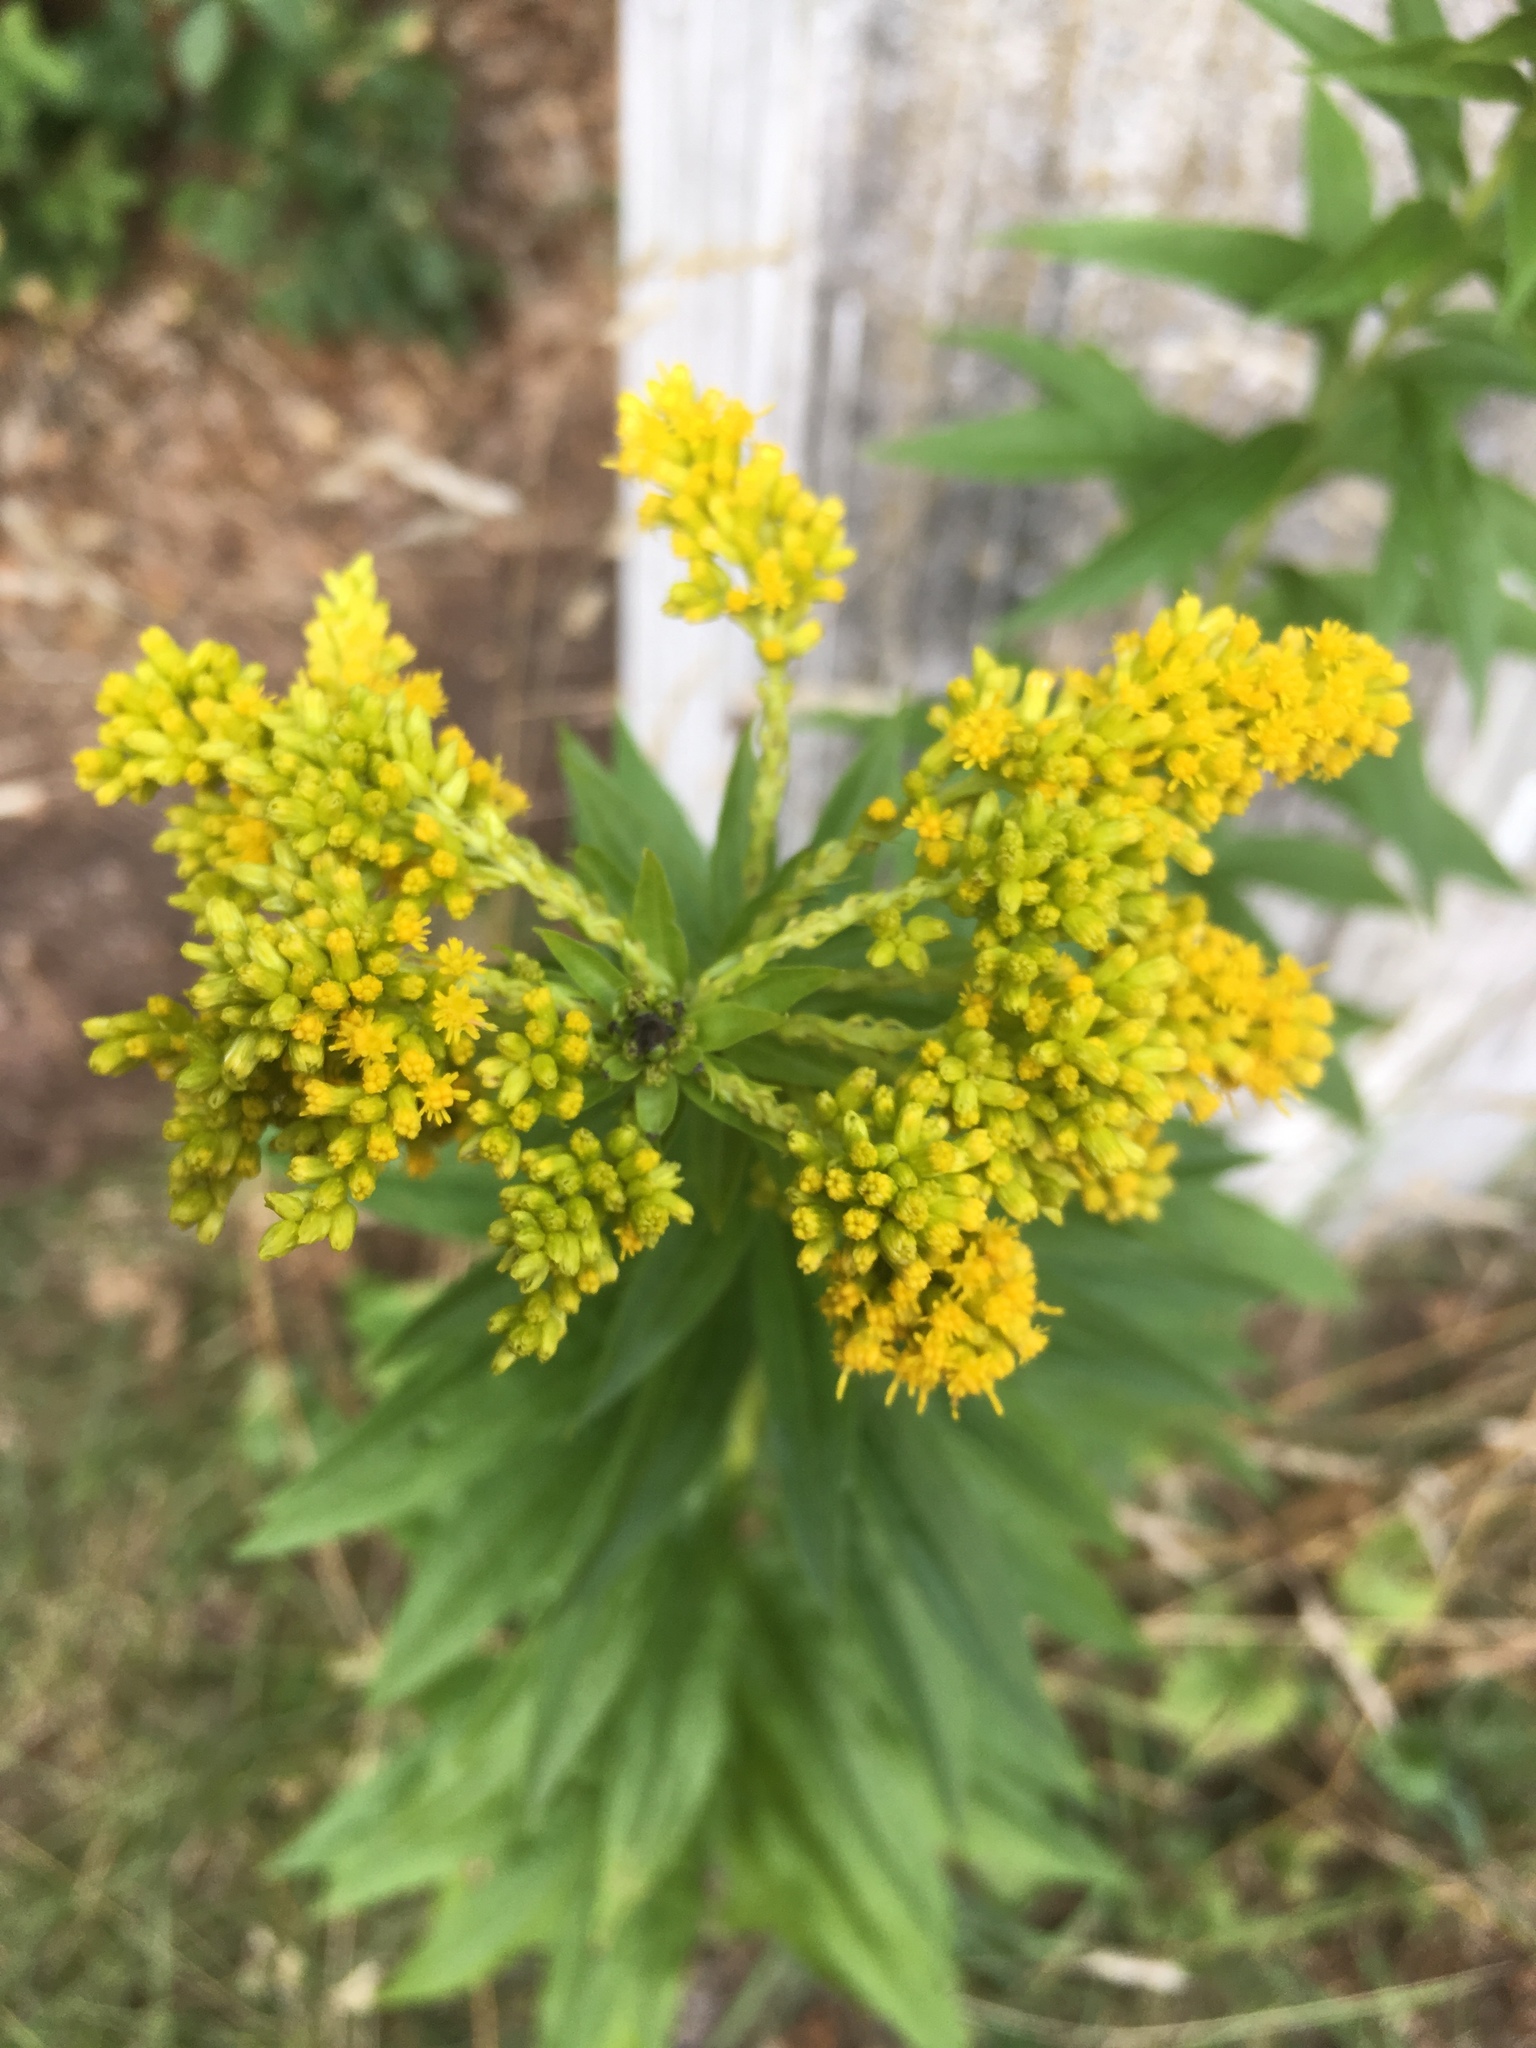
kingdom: Plantae
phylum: Tracheophyta
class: Magnoliopsida
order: Asterales
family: Asteraceae
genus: Solidago
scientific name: Solidago canadensis
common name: Canada goldenrod
